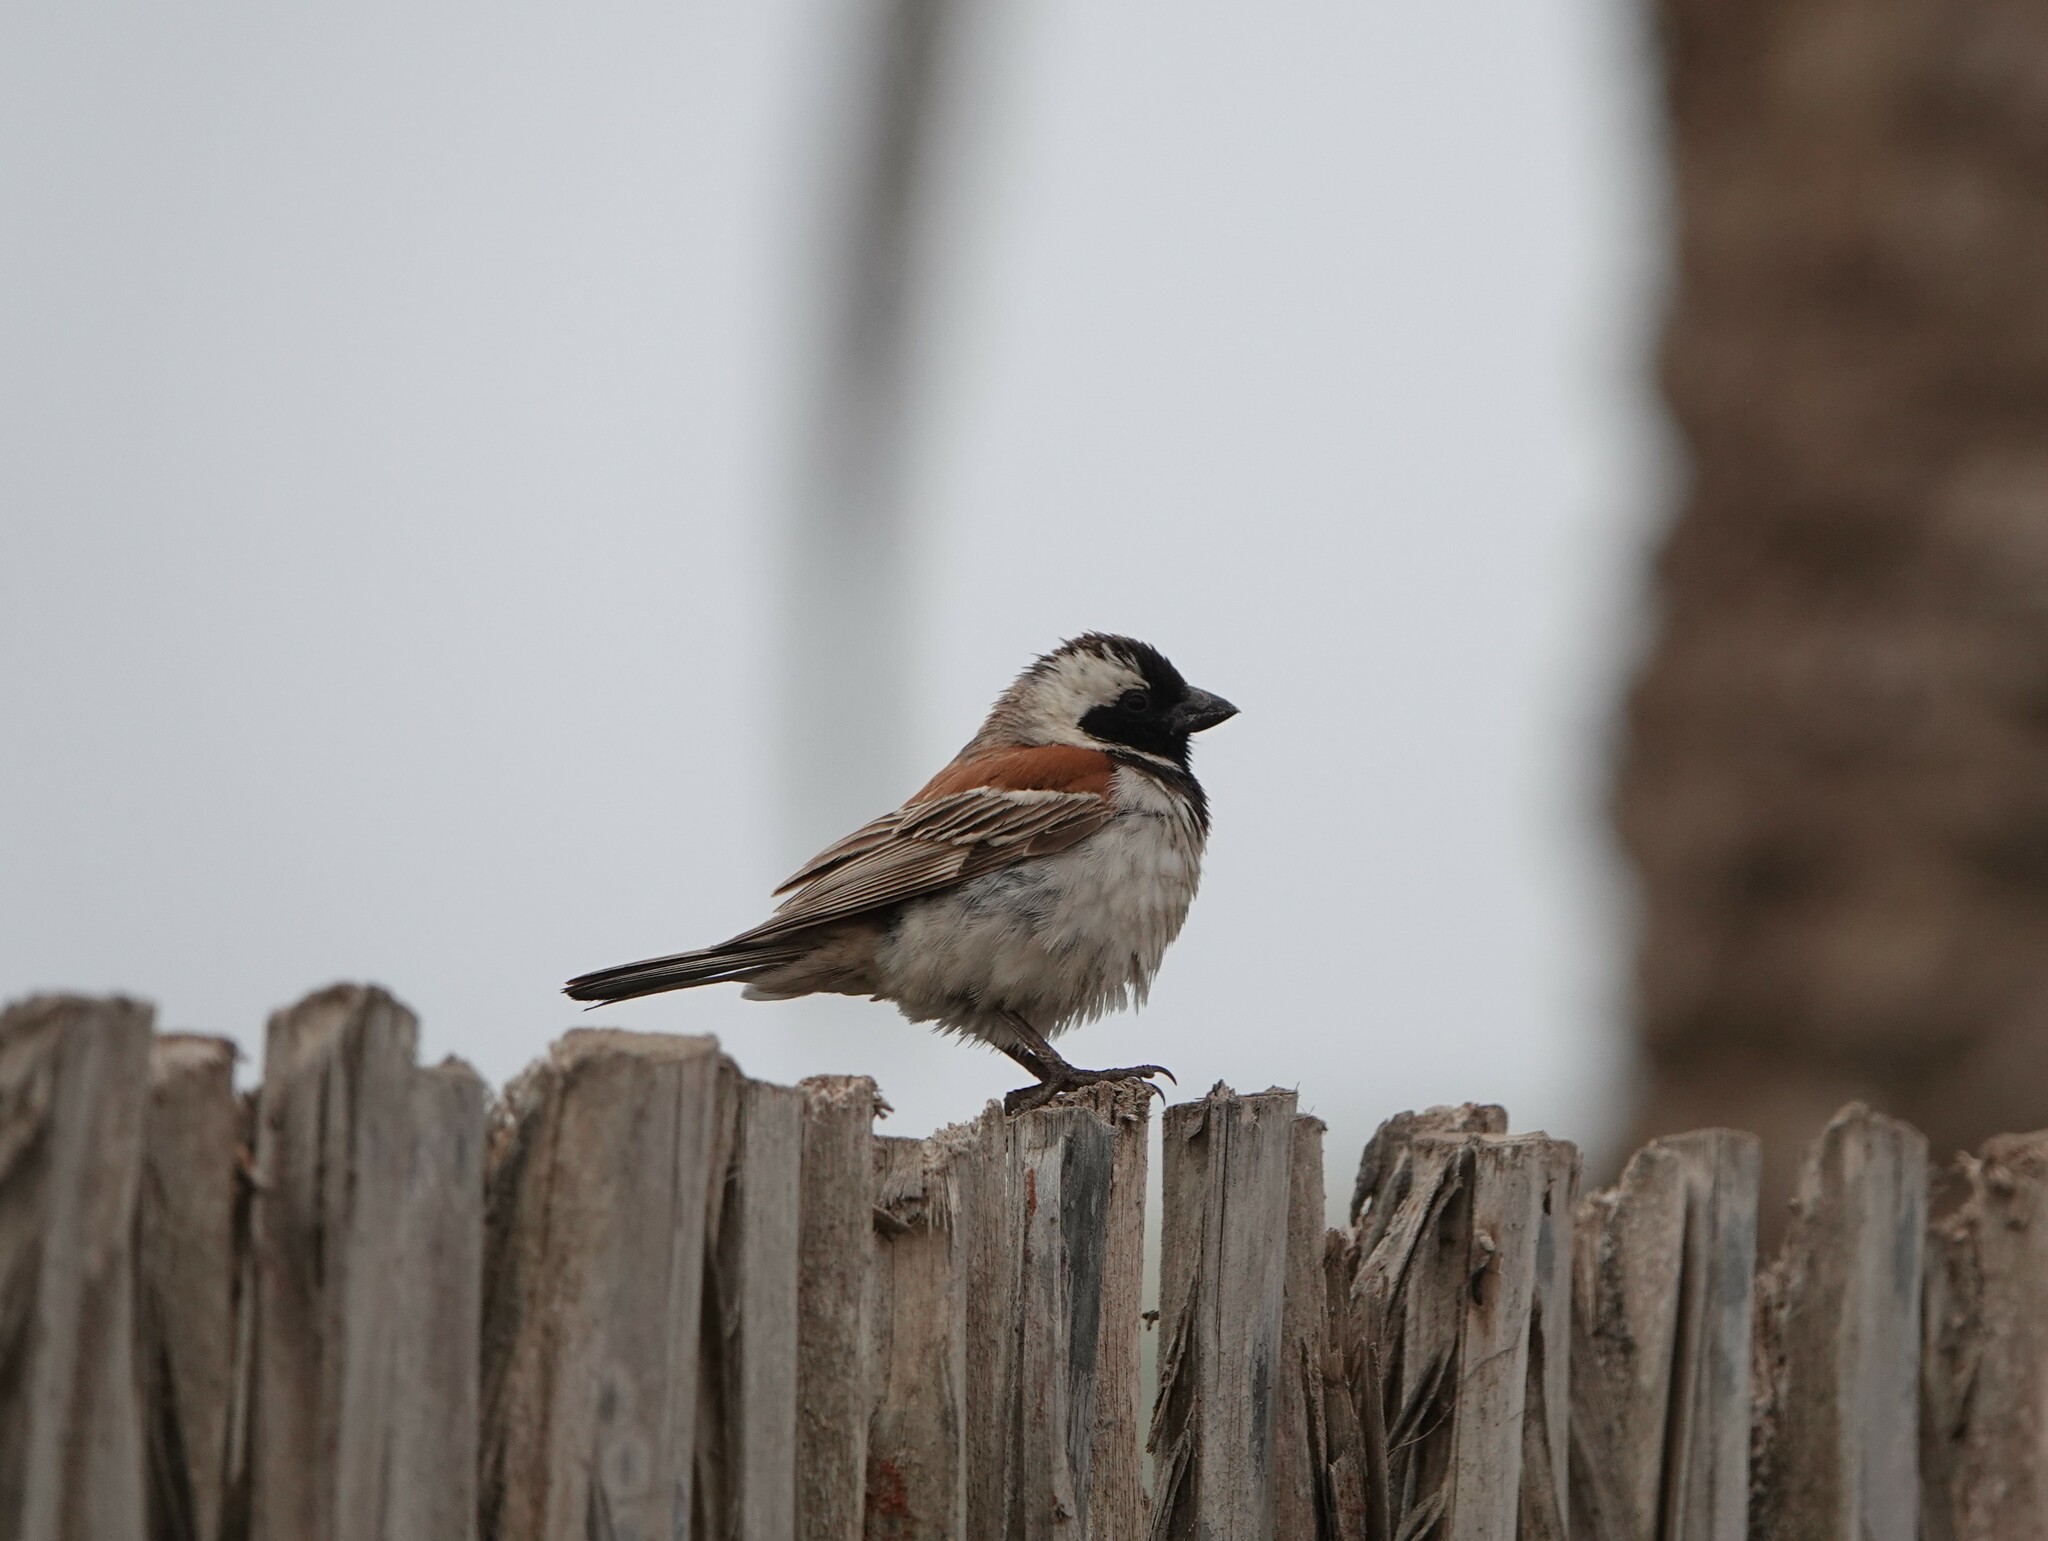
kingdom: Animalia
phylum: Chordata
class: Aves
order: Passeriformes
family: Passeridae
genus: Passer
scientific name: Passer melanurus
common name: Cape sparrow
